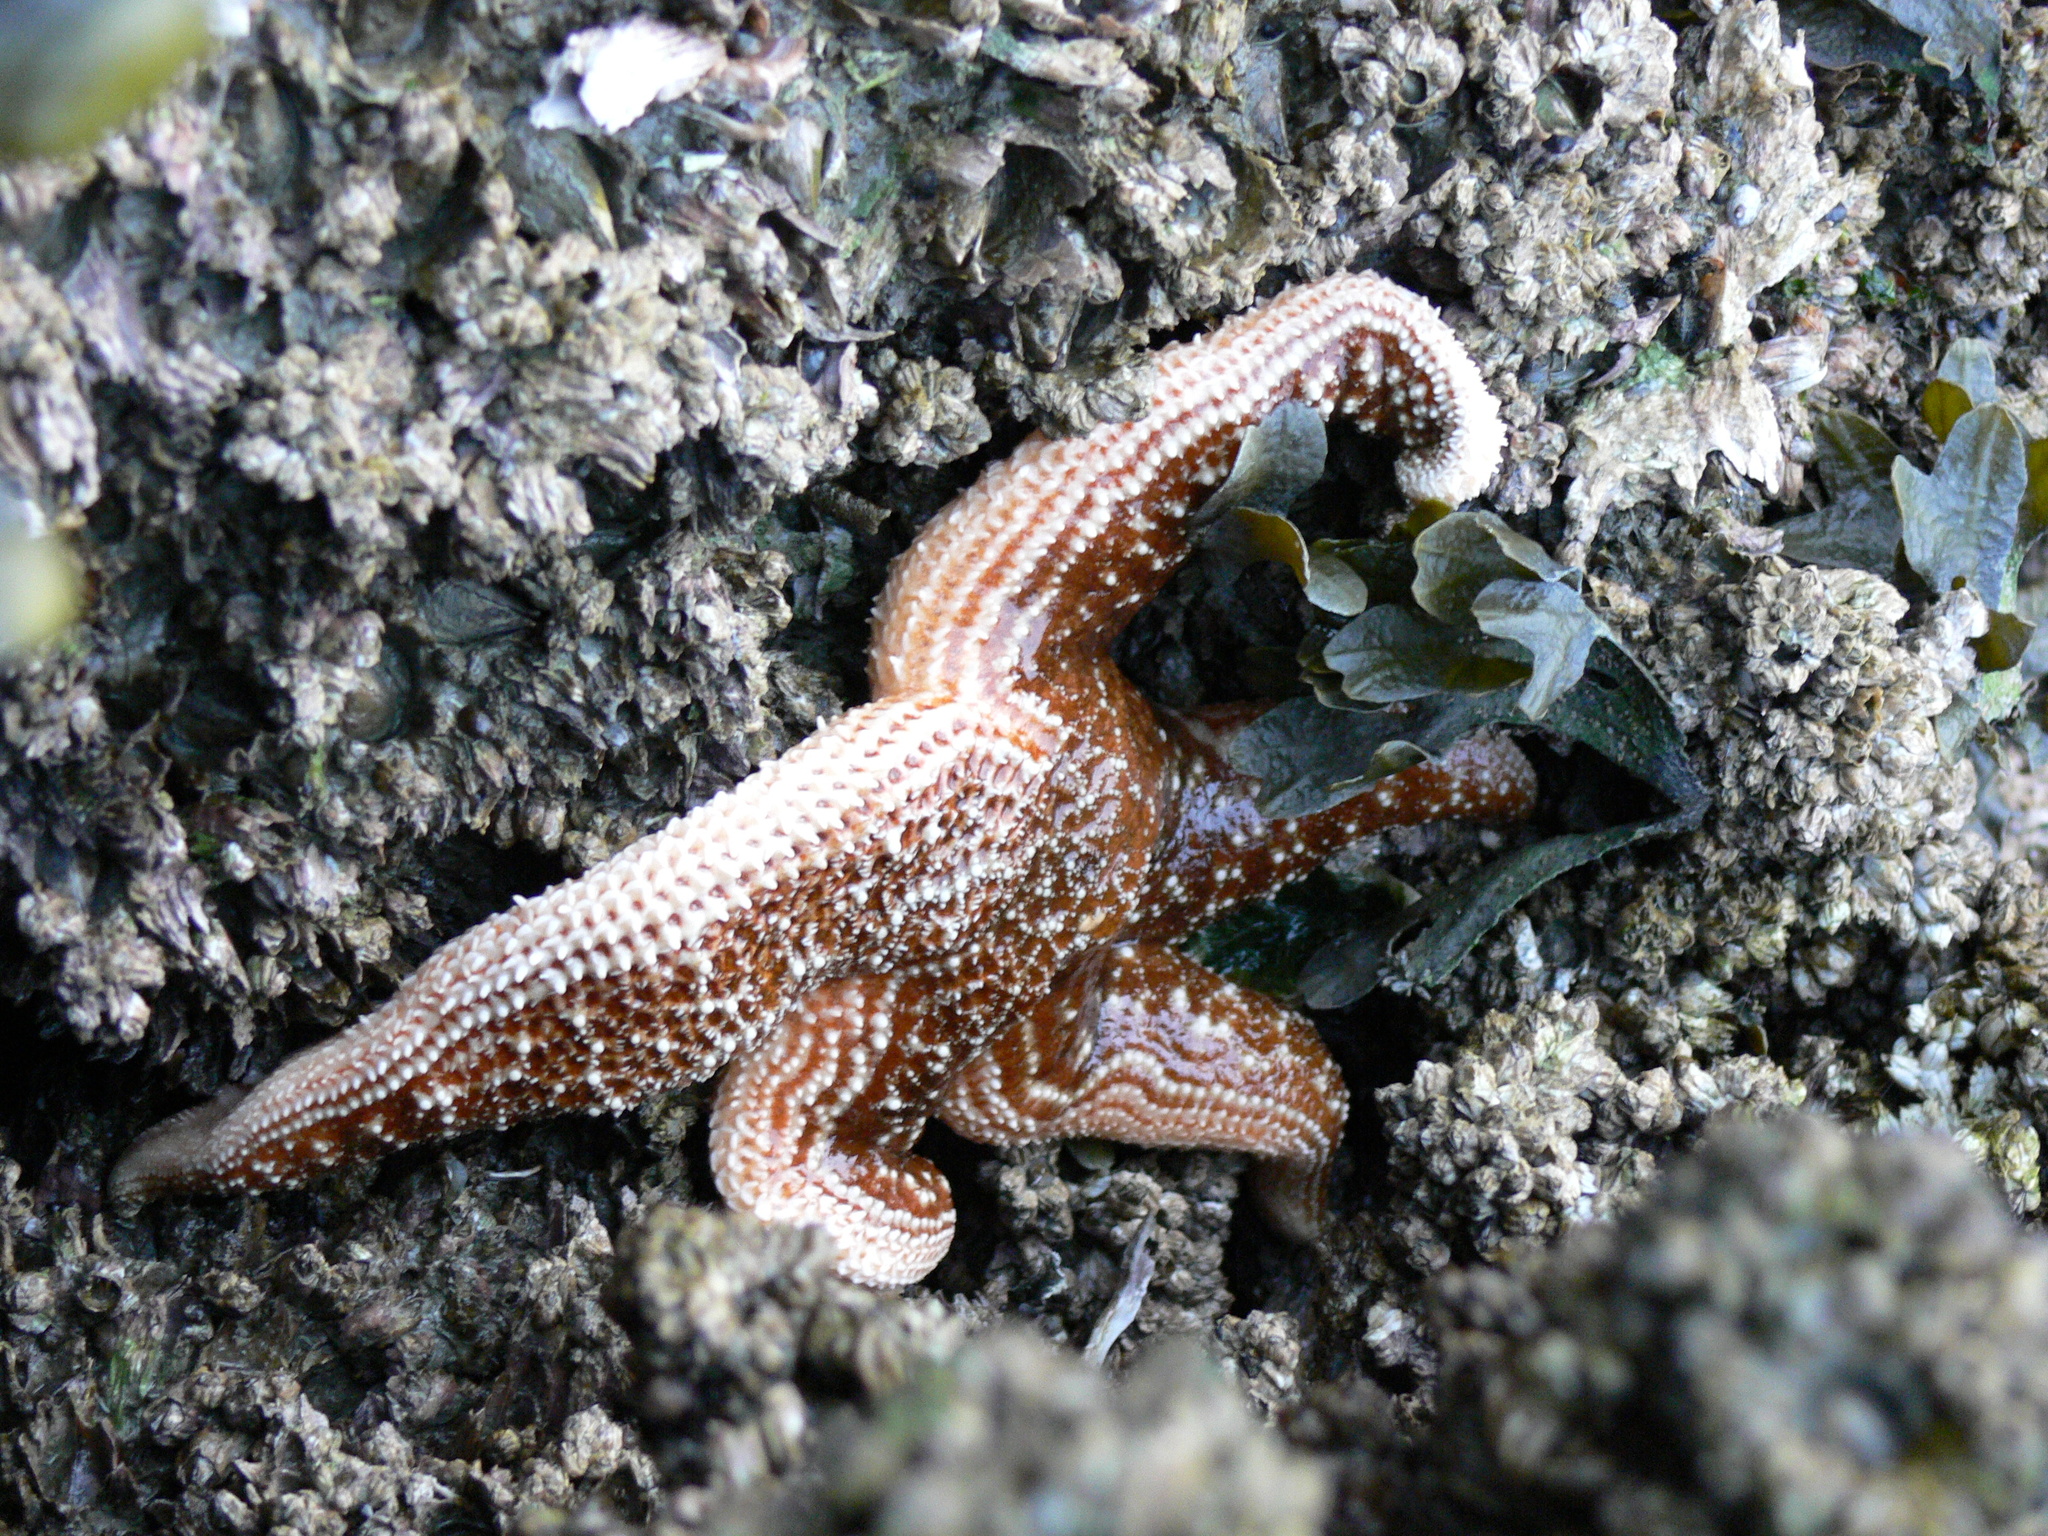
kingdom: Animalia
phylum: Echinodermata
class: Asteroidea
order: Forcipulatida
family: Asteriidae
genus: Evasterias
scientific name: Evasterias troschelii
